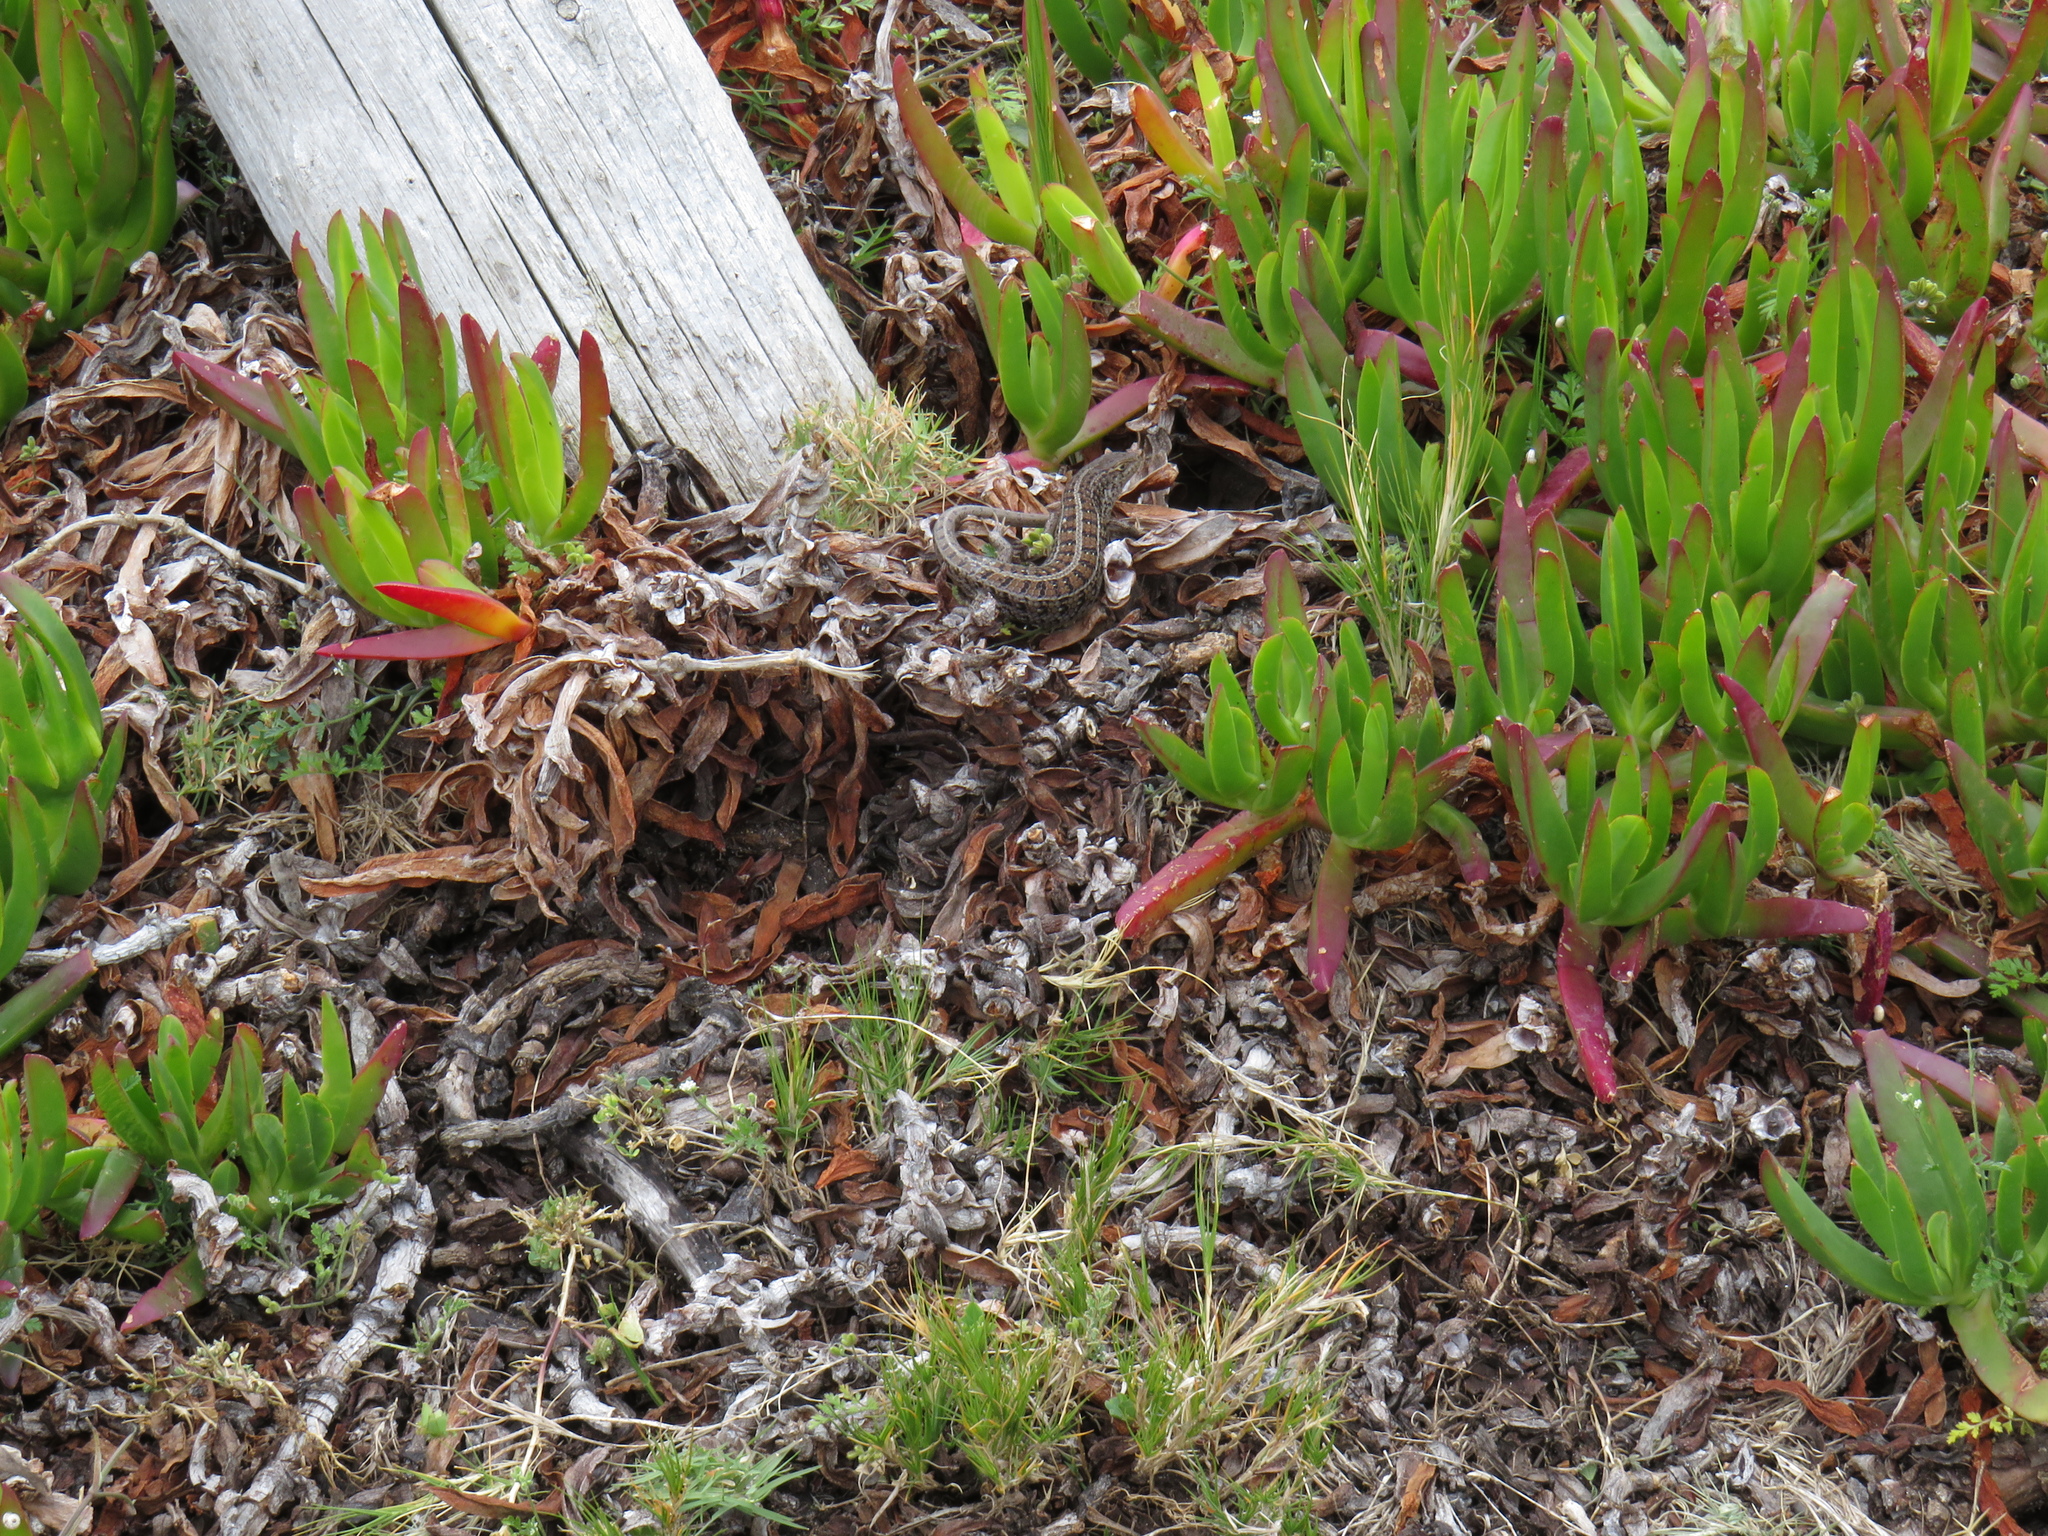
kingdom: Animalia
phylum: Chordata
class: Squamata
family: Scincidae
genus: Trachylepis
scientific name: Trachylepis capensis
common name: Cape skink
